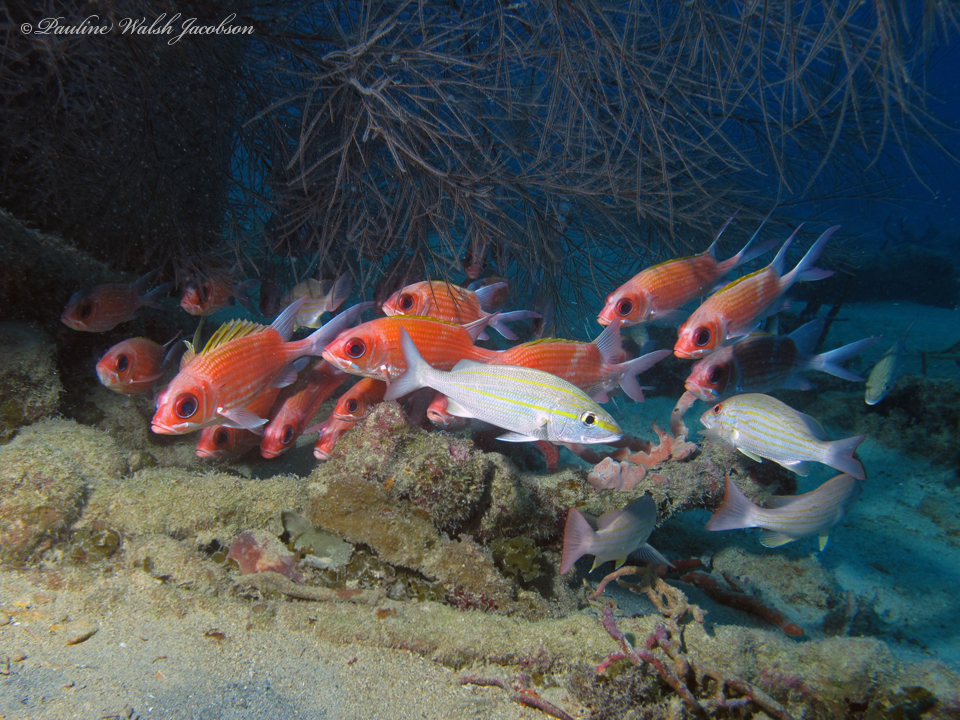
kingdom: Animalia
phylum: Chordata
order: Perciformes
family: Haemulidae
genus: Haemulon
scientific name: Haemulon aurolineatum
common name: Tomtate
